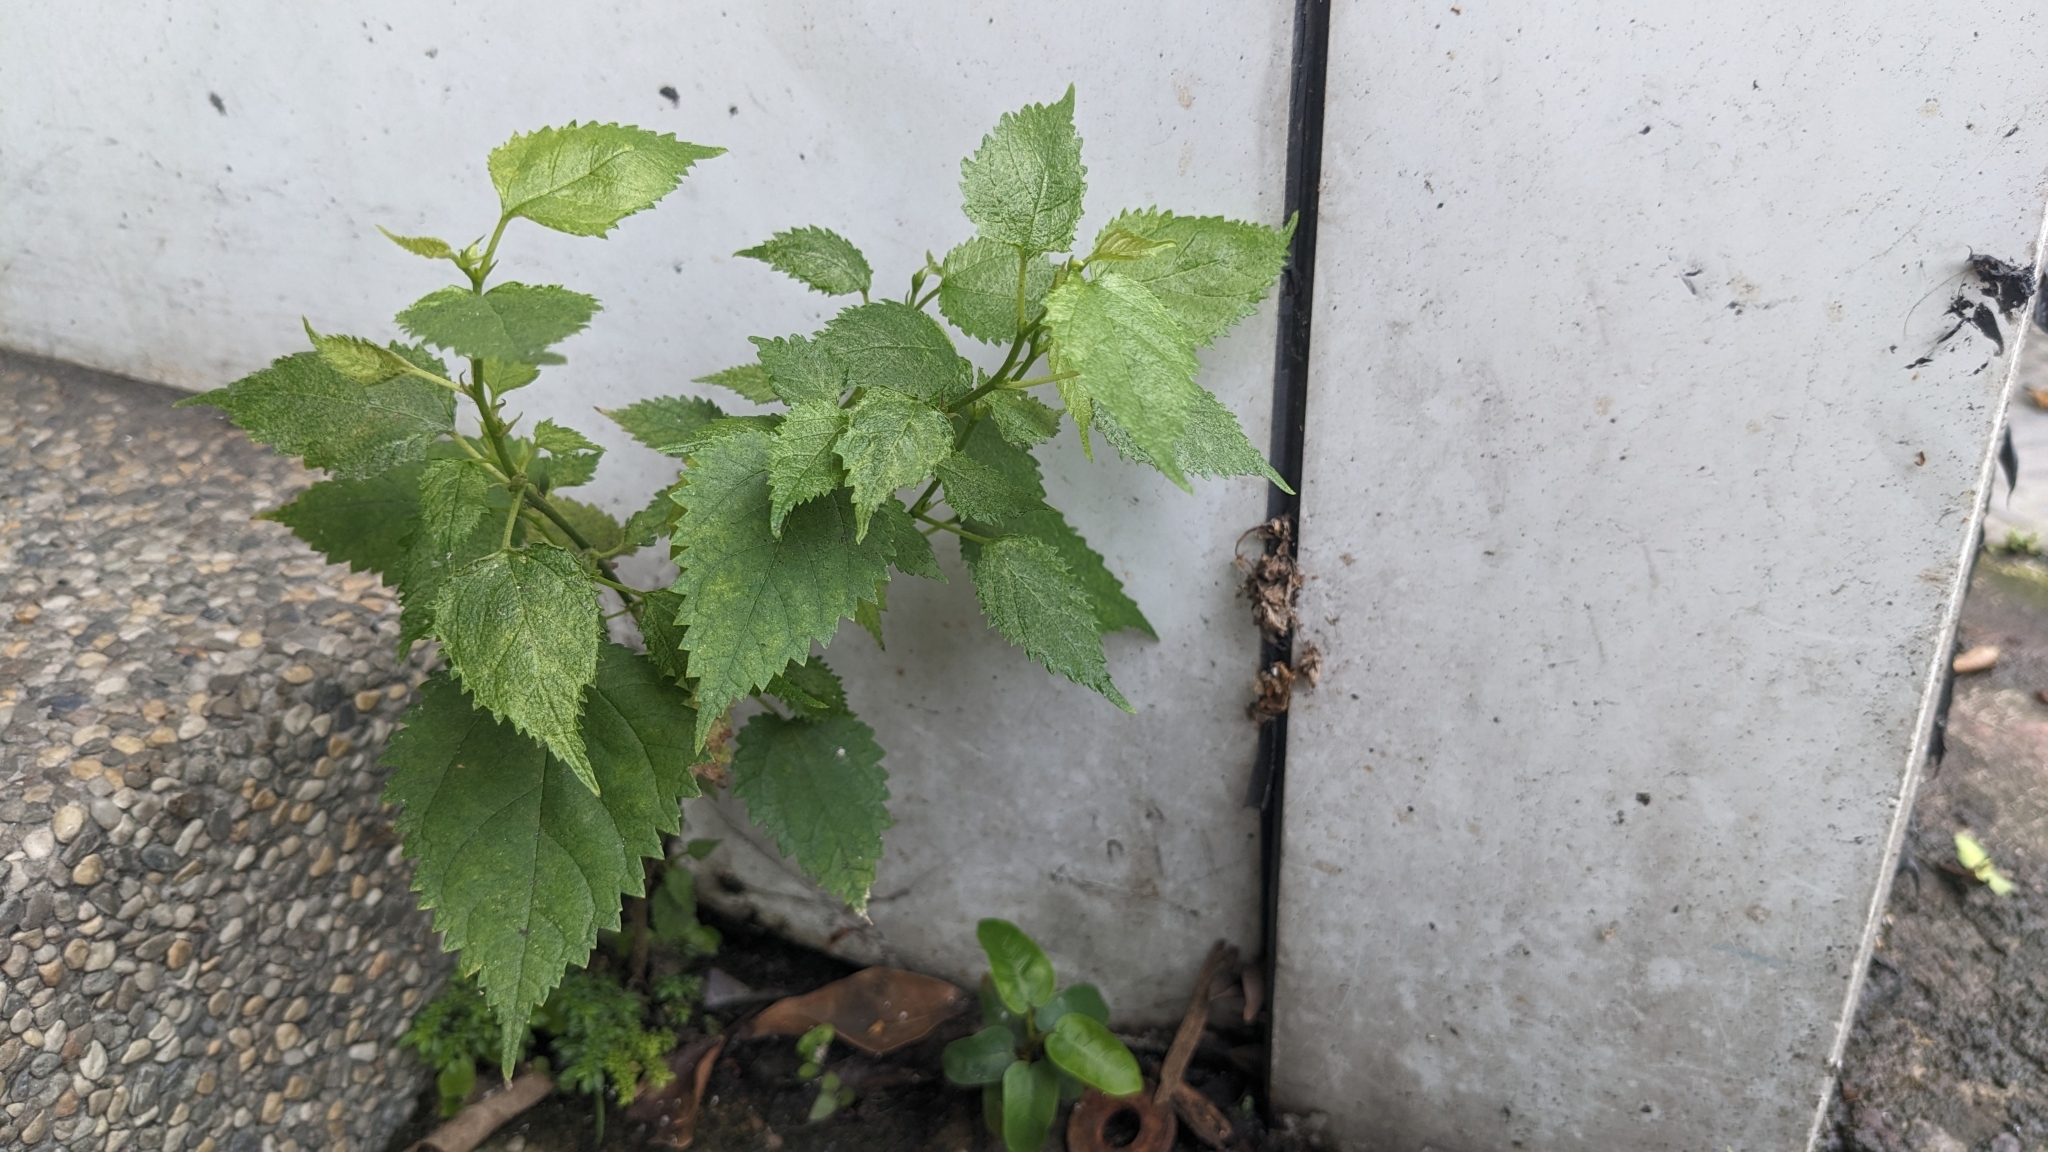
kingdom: Plantae
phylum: Tracheophyta
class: Magnoliopsida
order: Rosales
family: Moraceae
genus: Morus
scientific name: Morus indica
